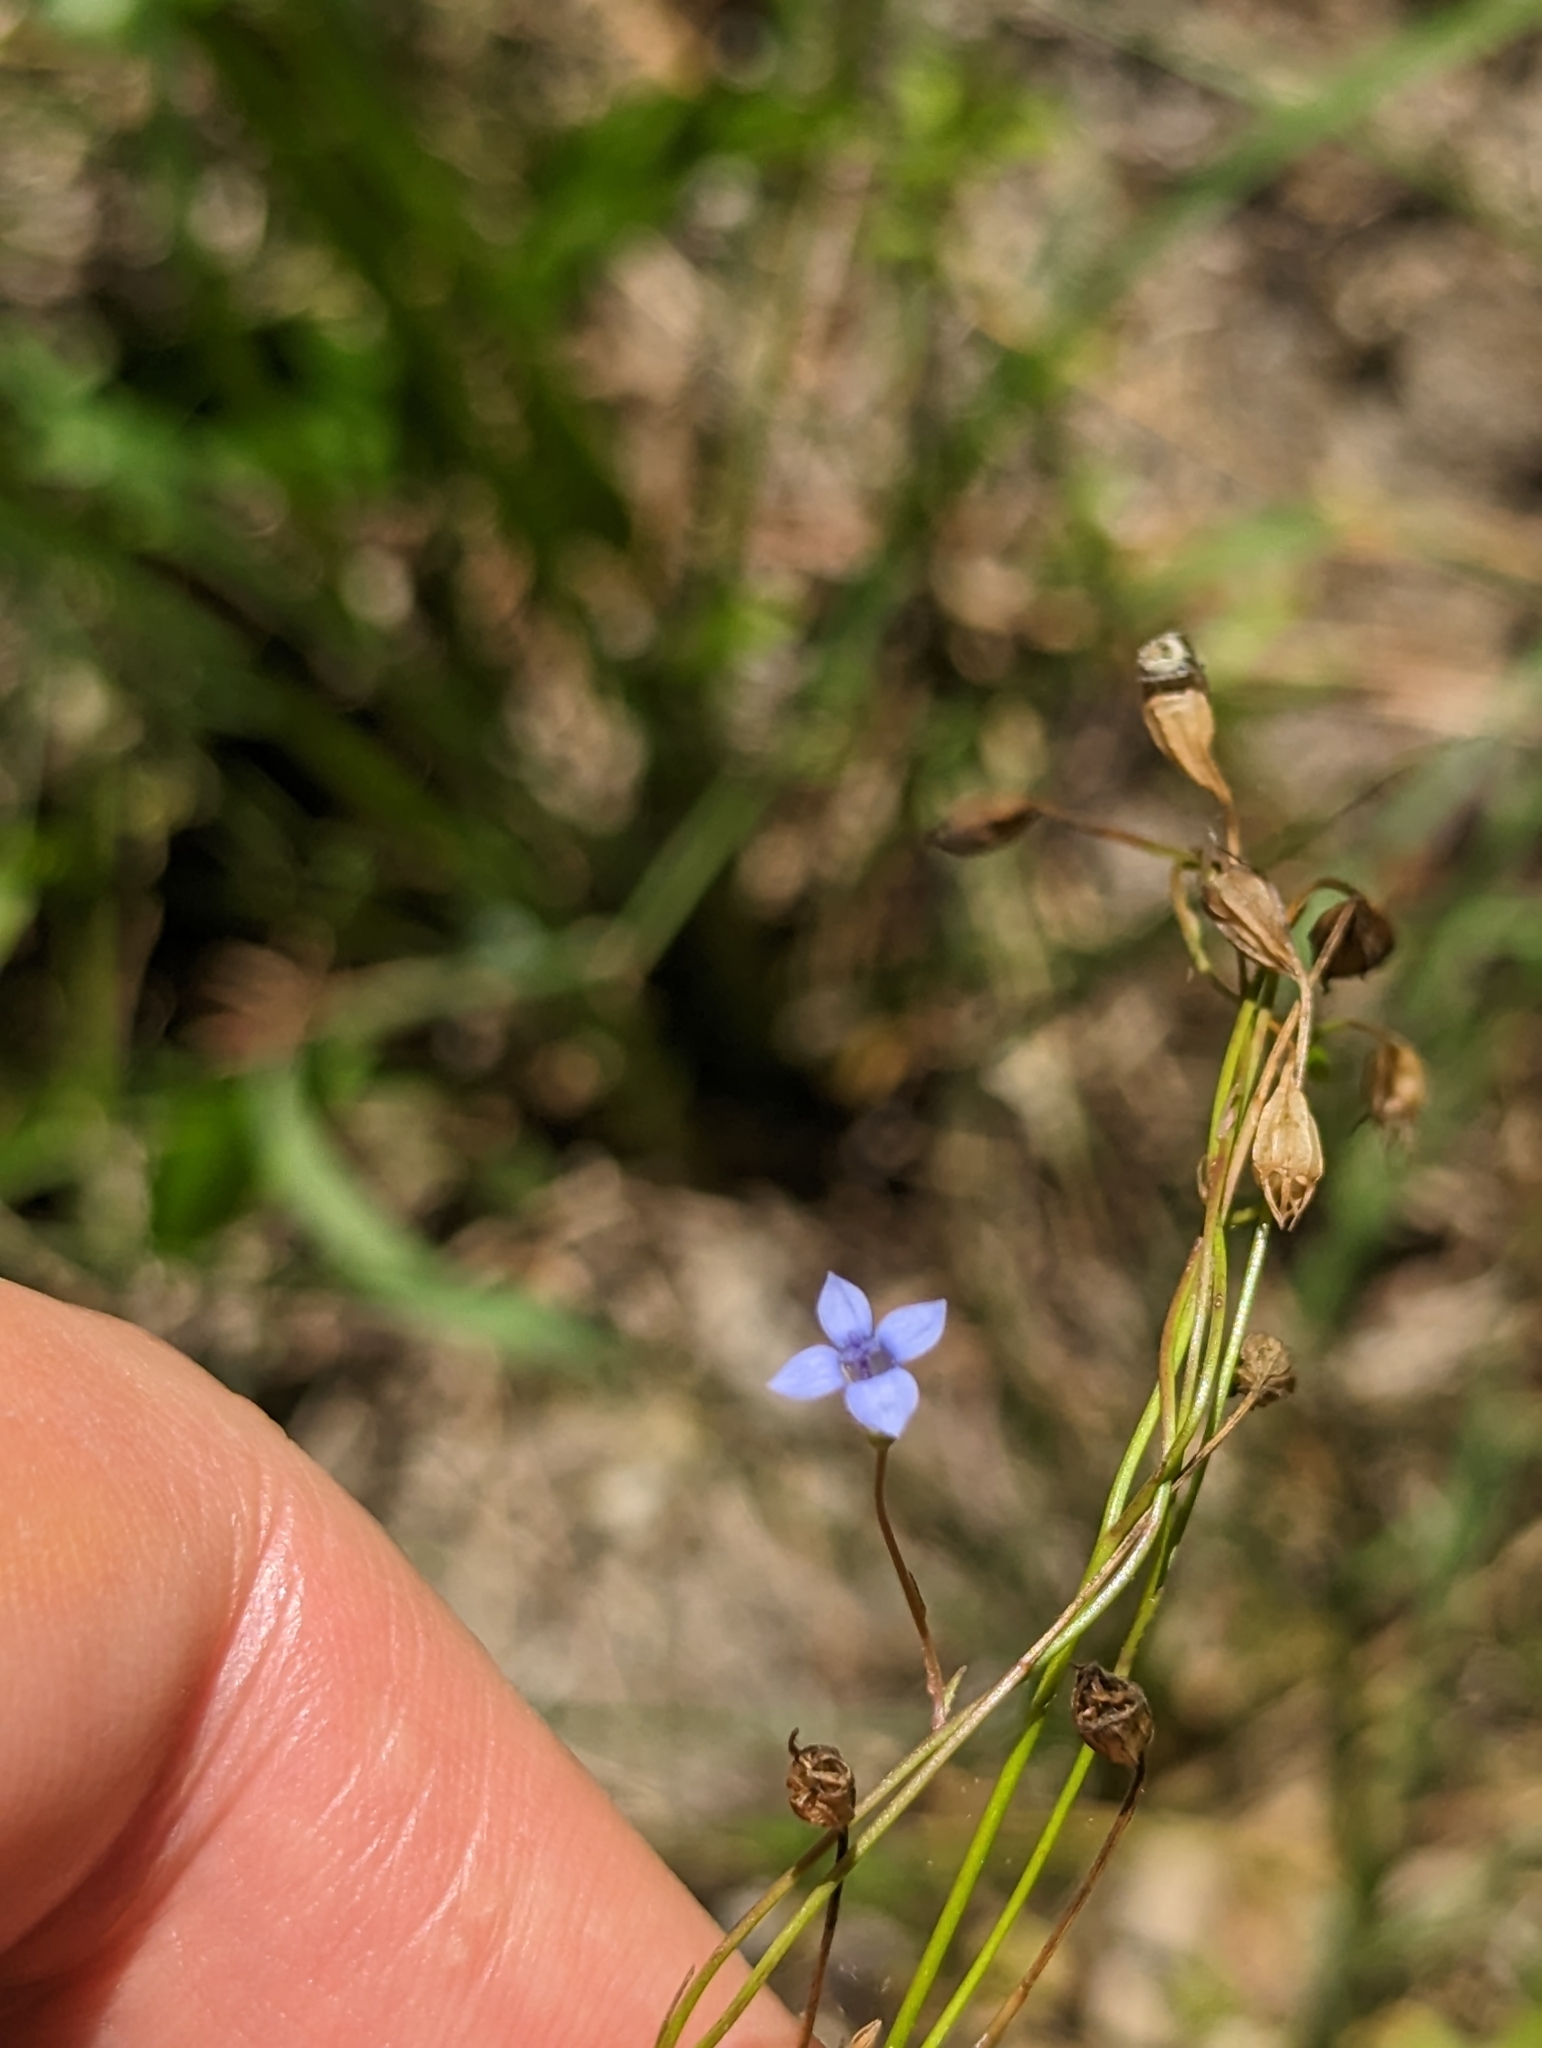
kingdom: Plantae
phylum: Tracheophyta
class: Magnoliopsida
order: Asterales
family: Campanulaceae
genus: Wahlenbergia
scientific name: Wahlenbergia marginata
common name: Southern rockbell
